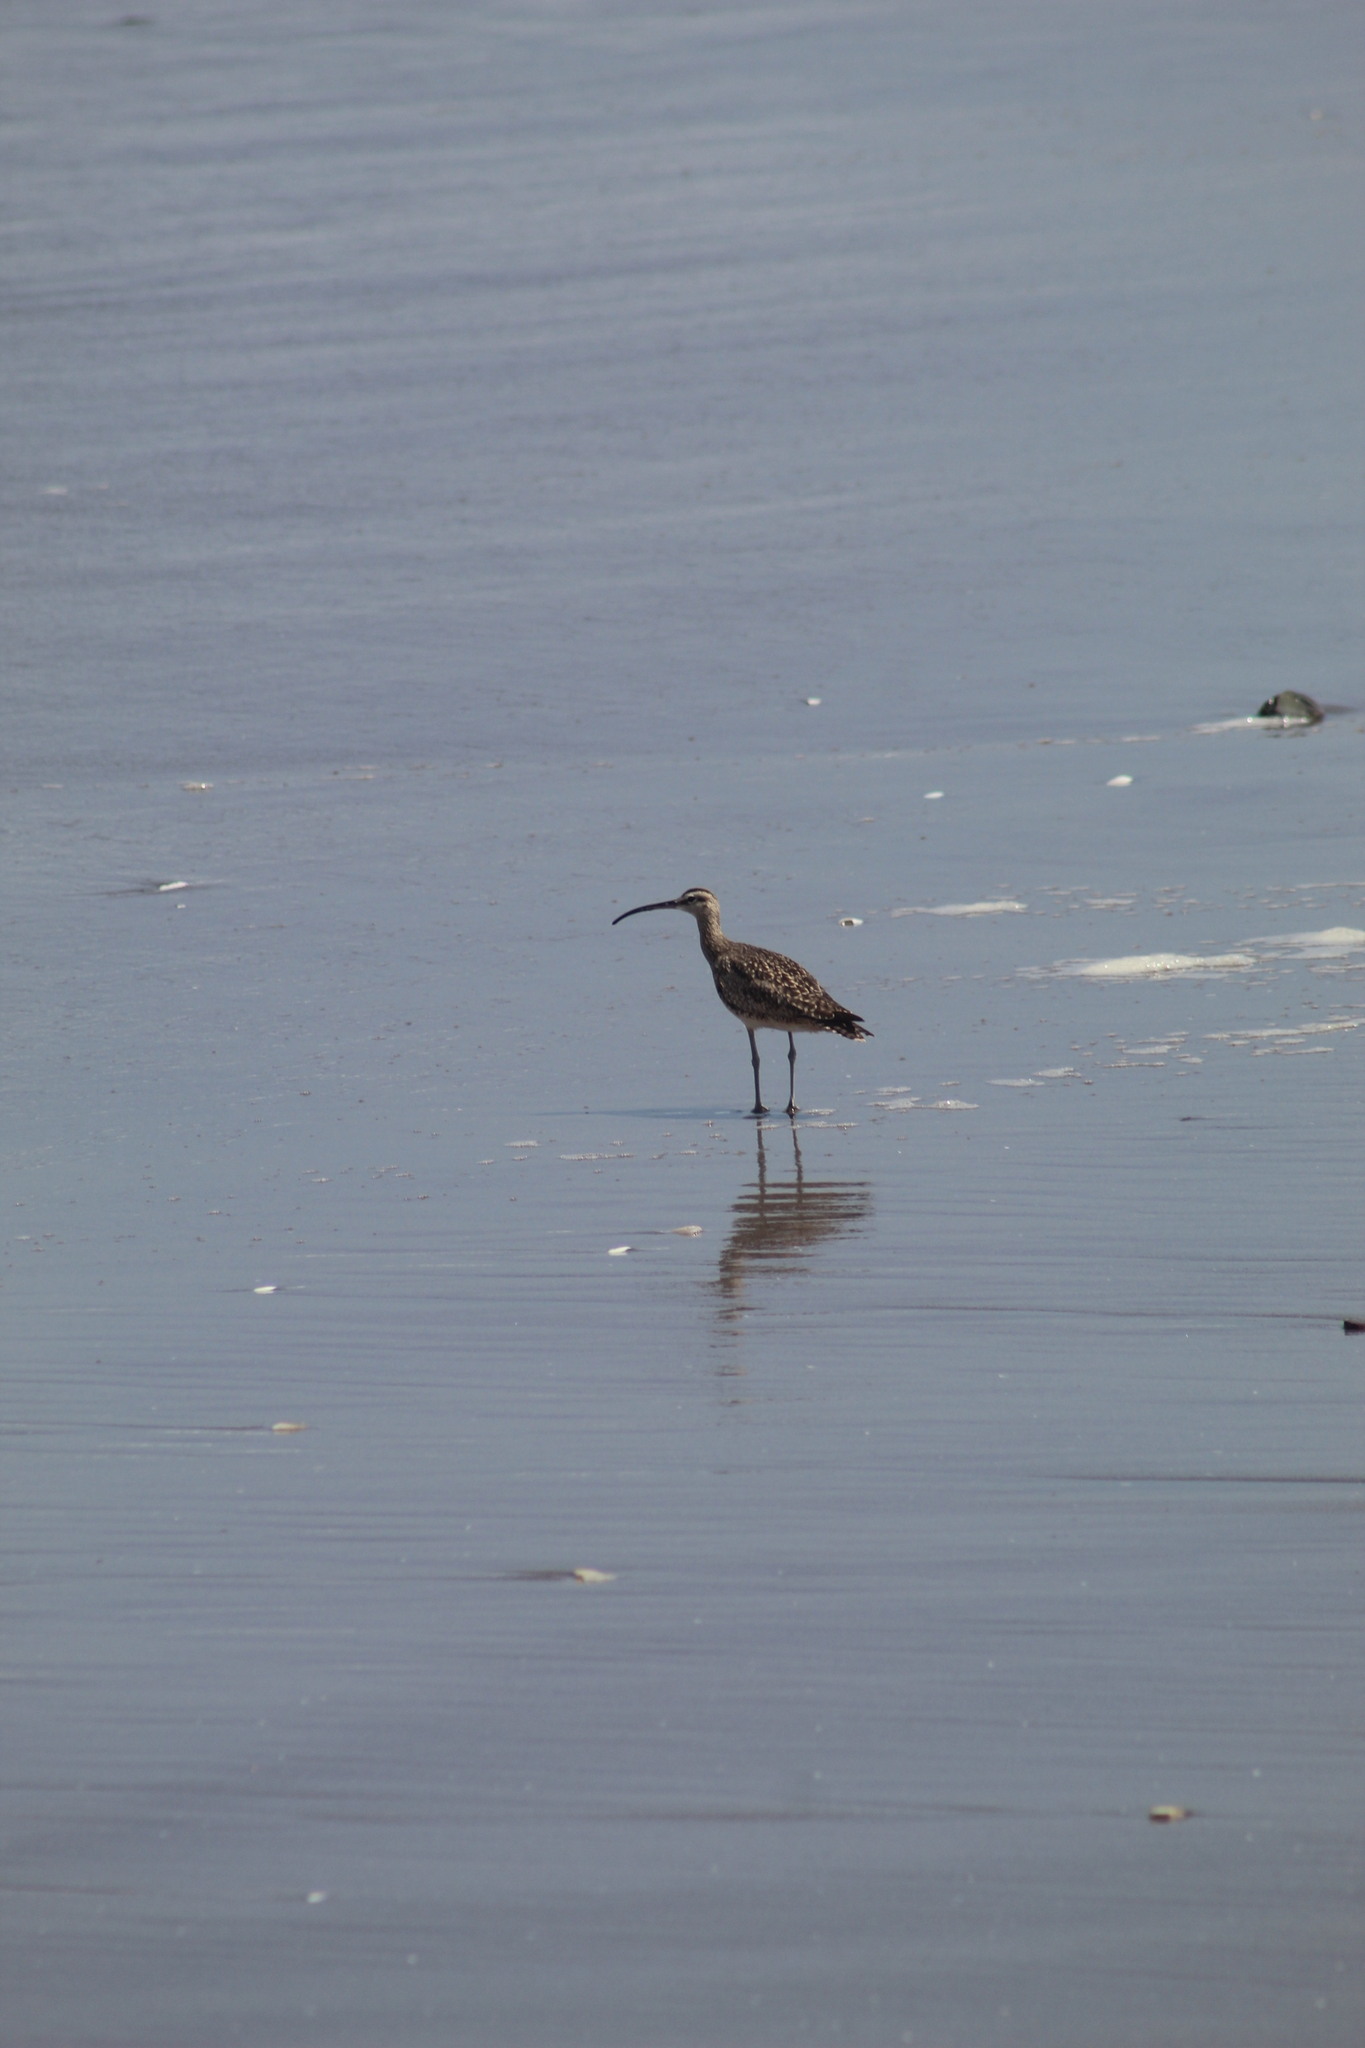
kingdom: Animalia
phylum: Chordata
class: Aves
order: Charadriiformes
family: Scolopacidae
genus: Numenius
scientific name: Numenius phaeopus
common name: Whimbrel
